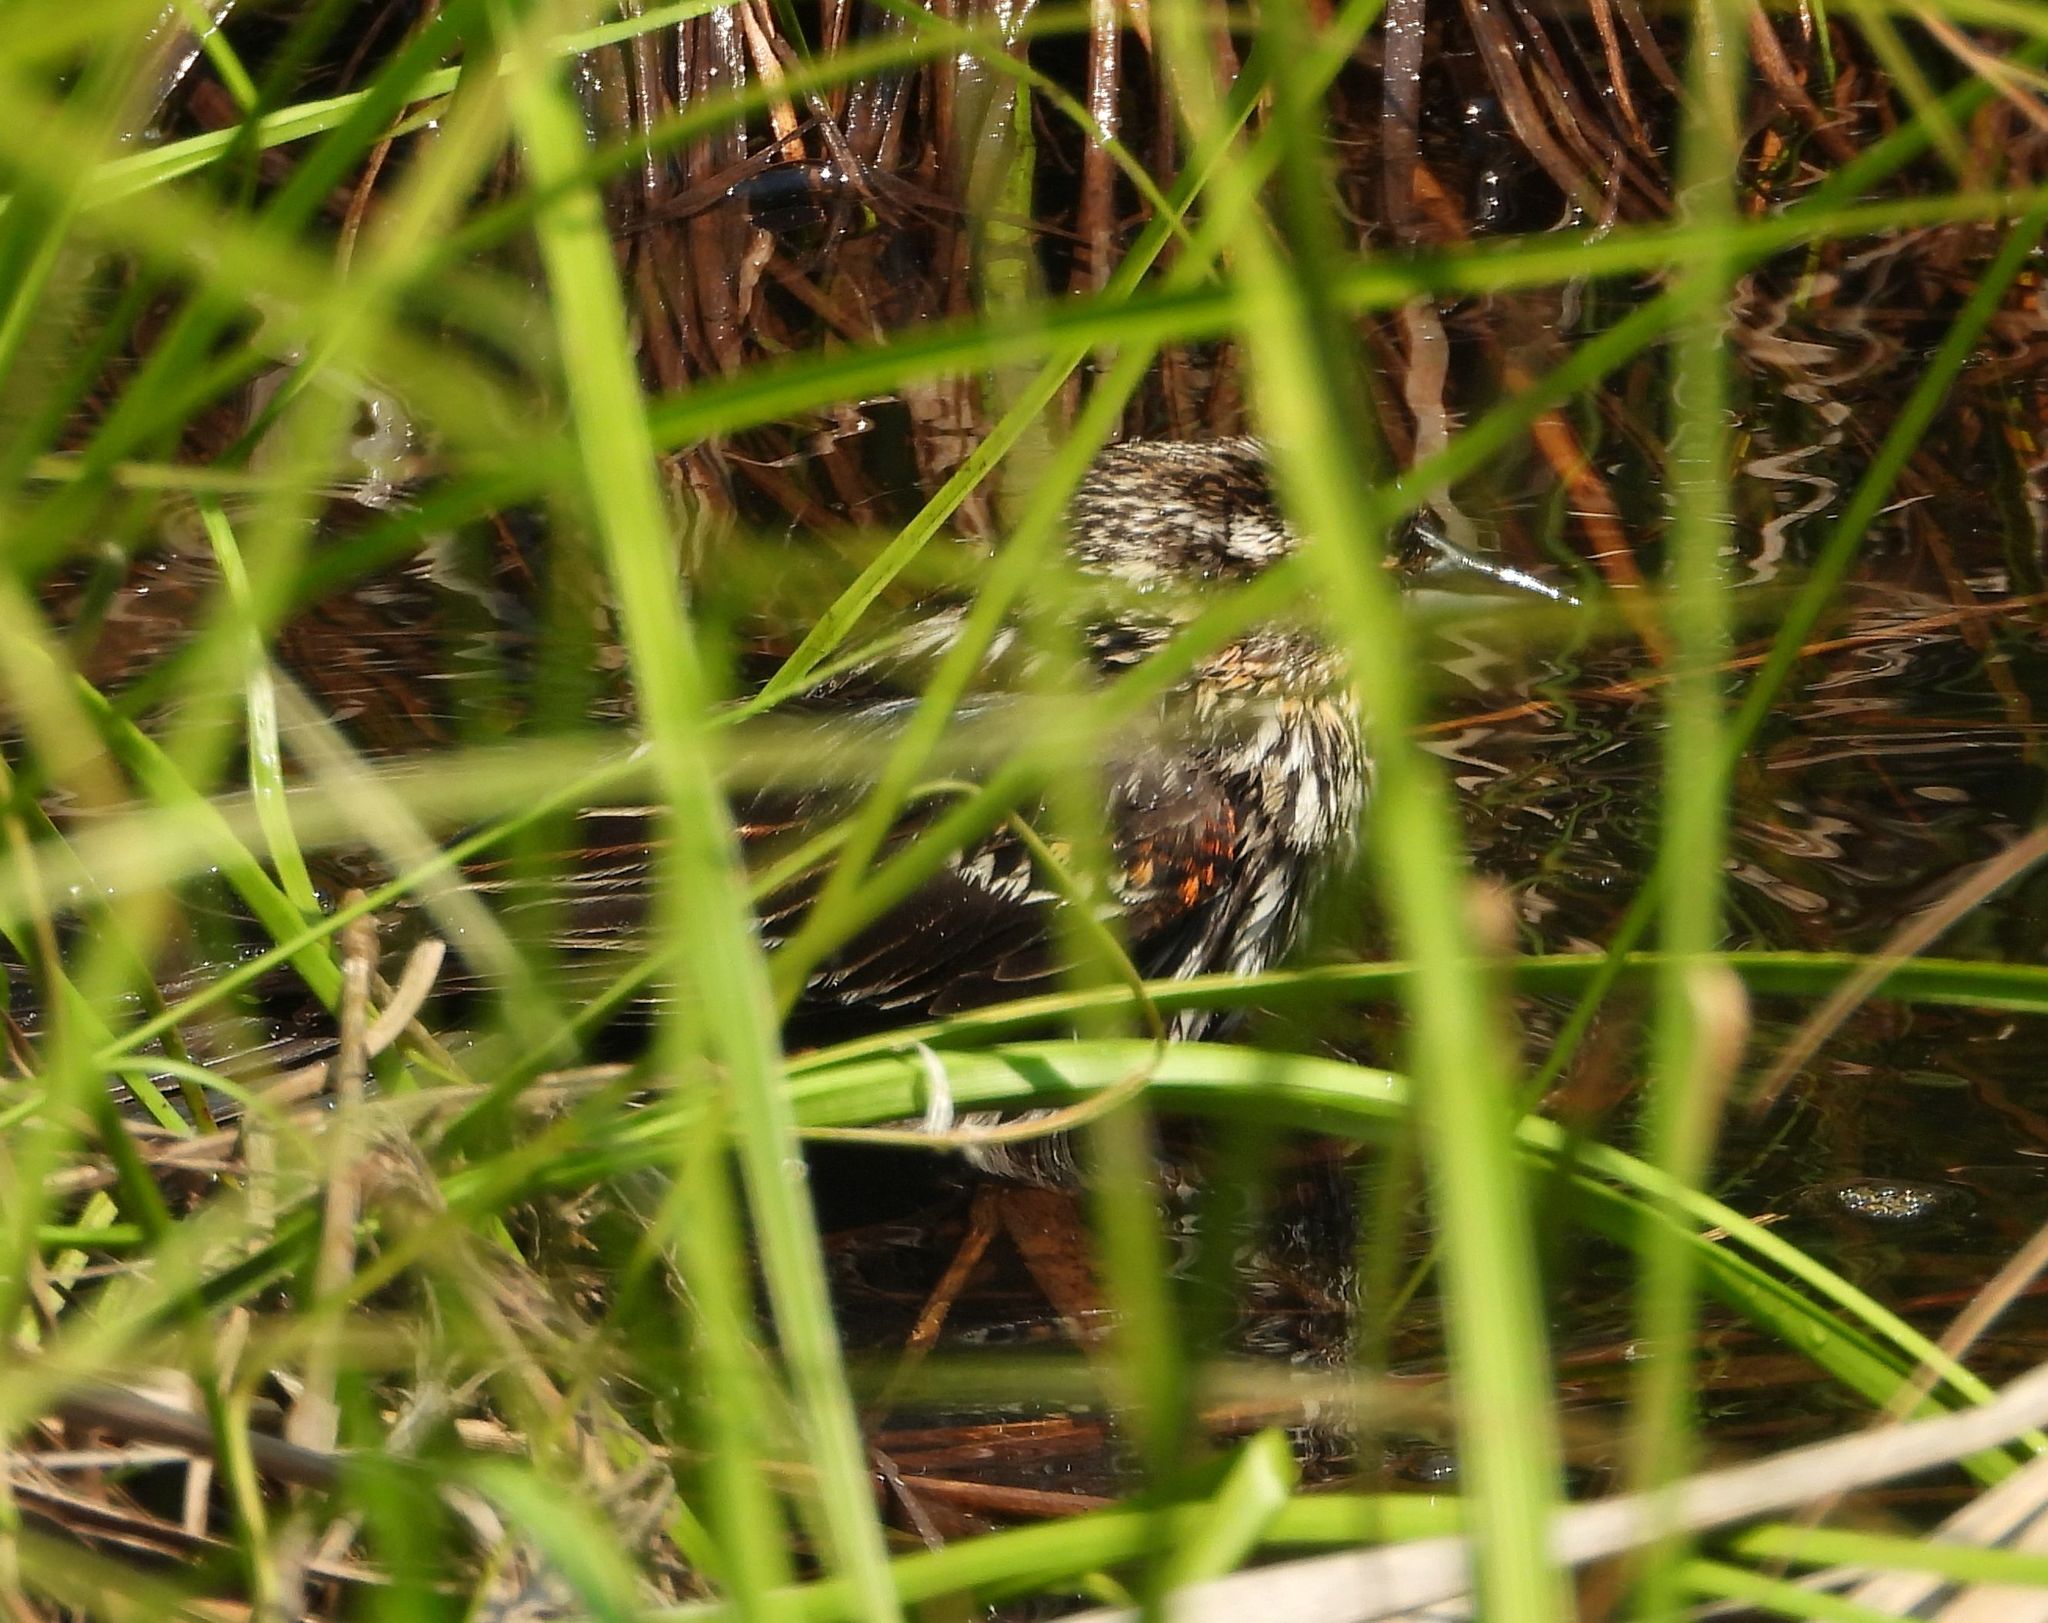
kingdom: Animalia
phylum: Chordata
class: Aves
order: Passeriformes
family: Icteridae
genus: Agelaius
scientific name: Agelaius phoeniceus
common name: Red-winged blackbird
